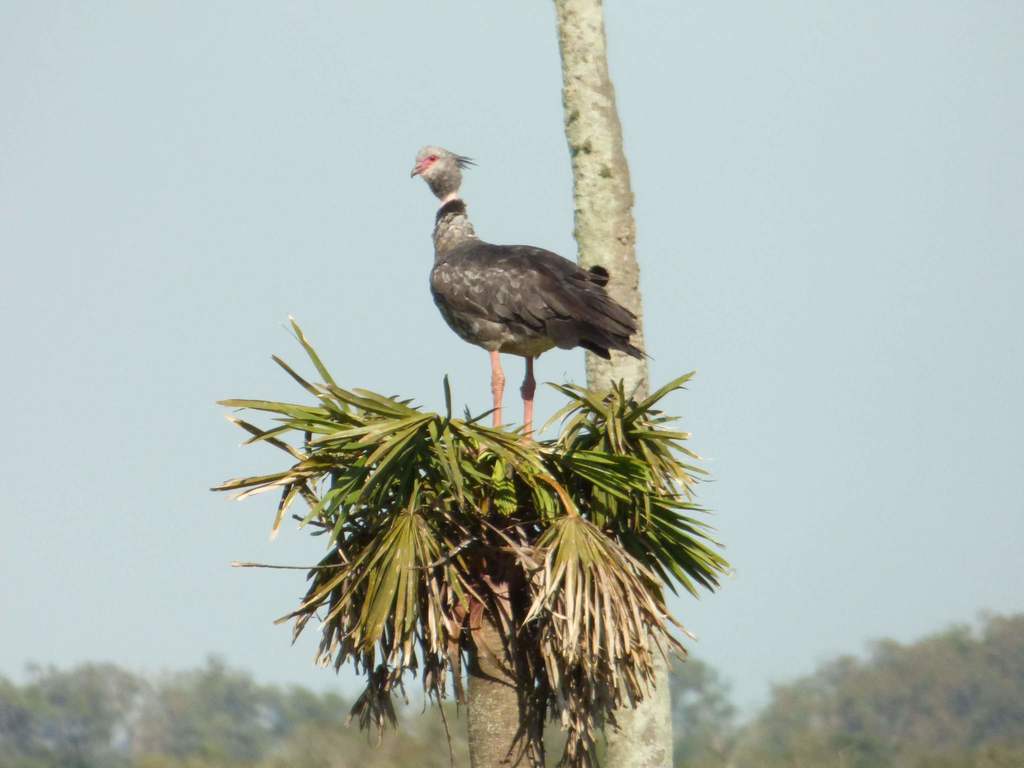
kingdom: Animalia
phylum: Chordata
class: Aves
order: Anseriformes
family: Anhimidae
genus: Chauna
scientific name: Chauna torquata
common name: Southern screamer
